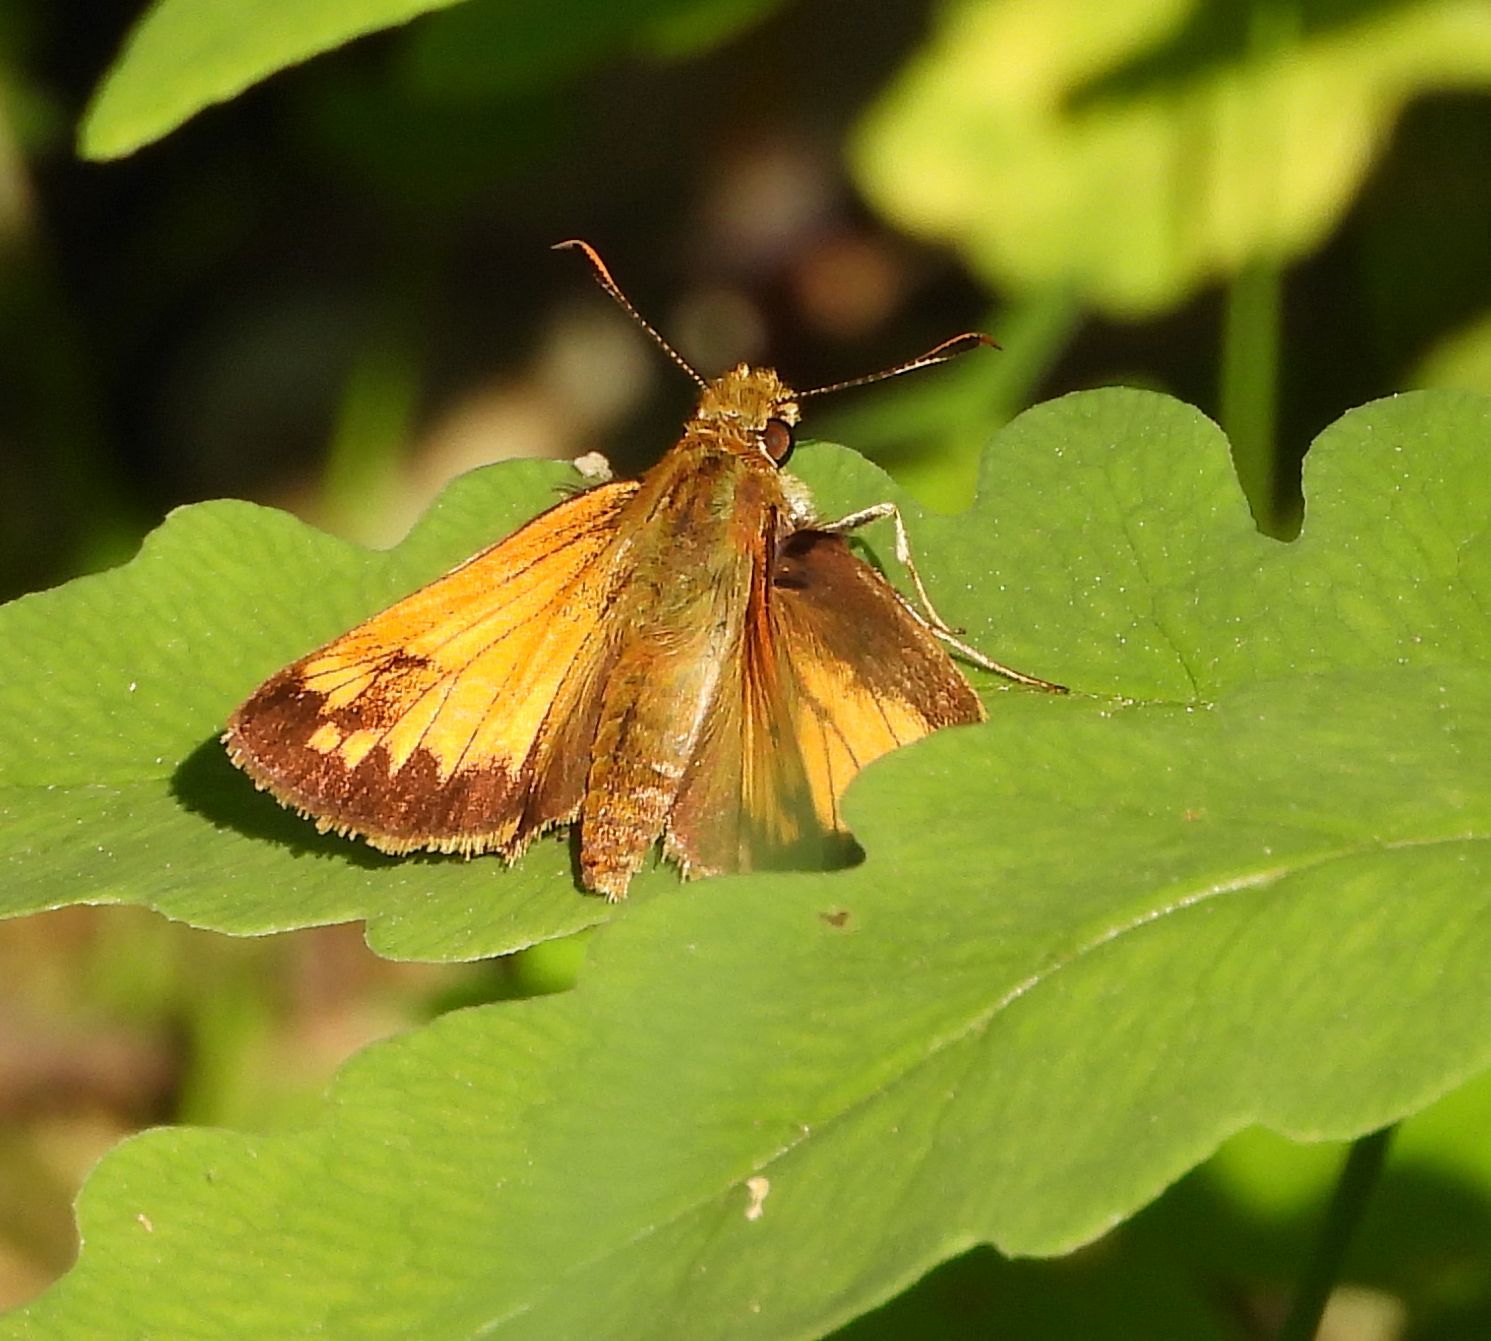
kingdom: Animalia
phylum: Arthropoda
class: Insecta
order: Lepidoptera
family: Hesperiidae
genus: Lon
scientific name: Lon hobomok
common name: Hobomok skipper
